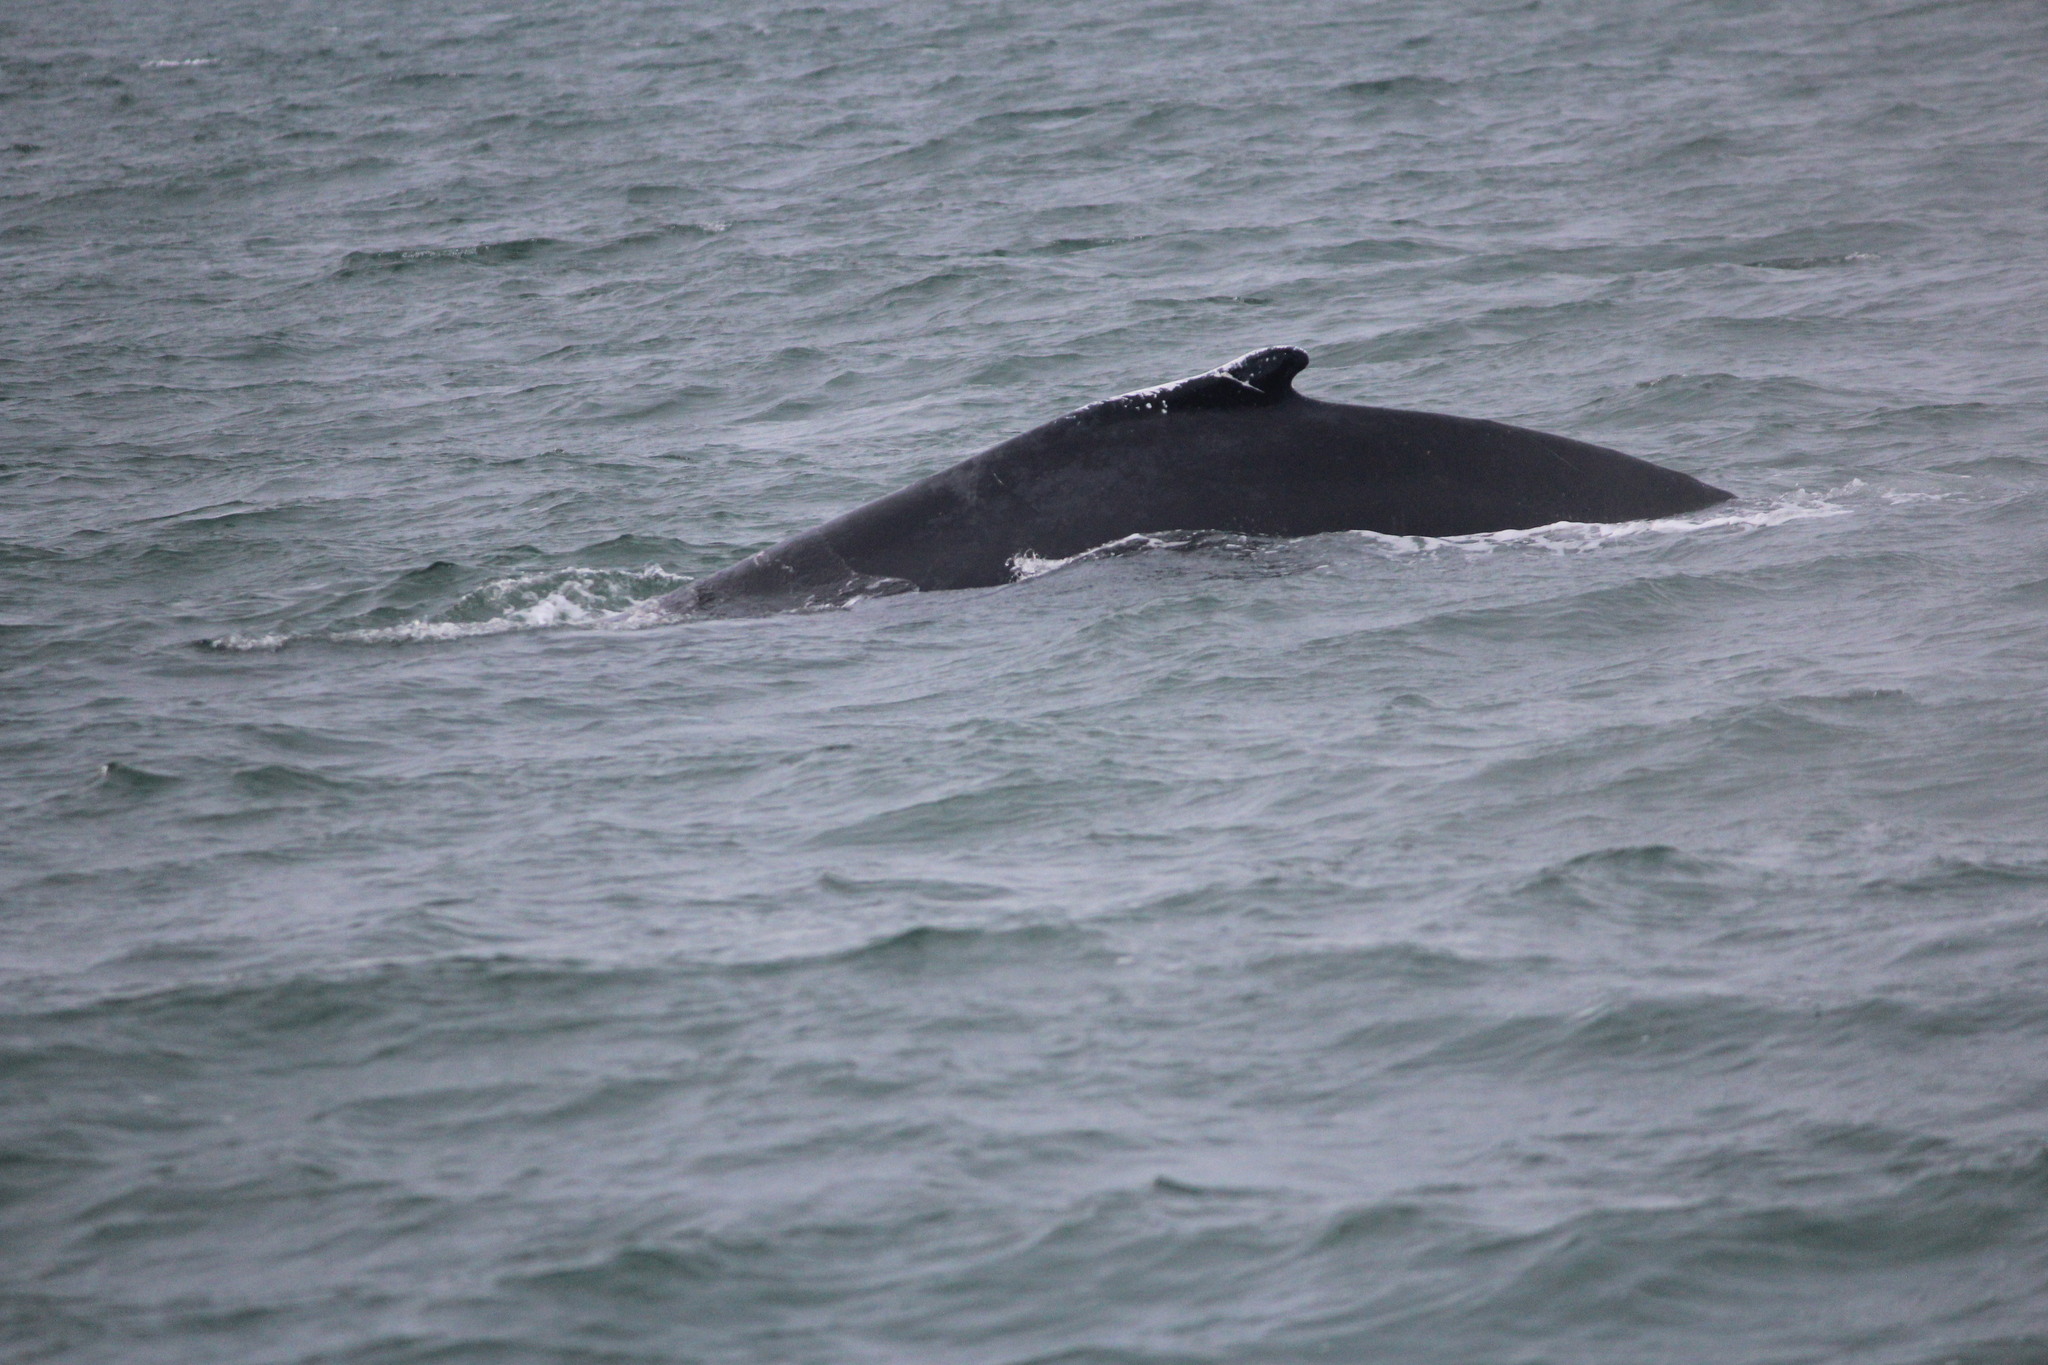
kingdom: Animalia
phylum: Chordata
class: Mammalia
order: Cetacea
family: Balaenopteridae
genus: Megaptera
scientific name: Megaptera novaeangliae
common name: Humpback whale
